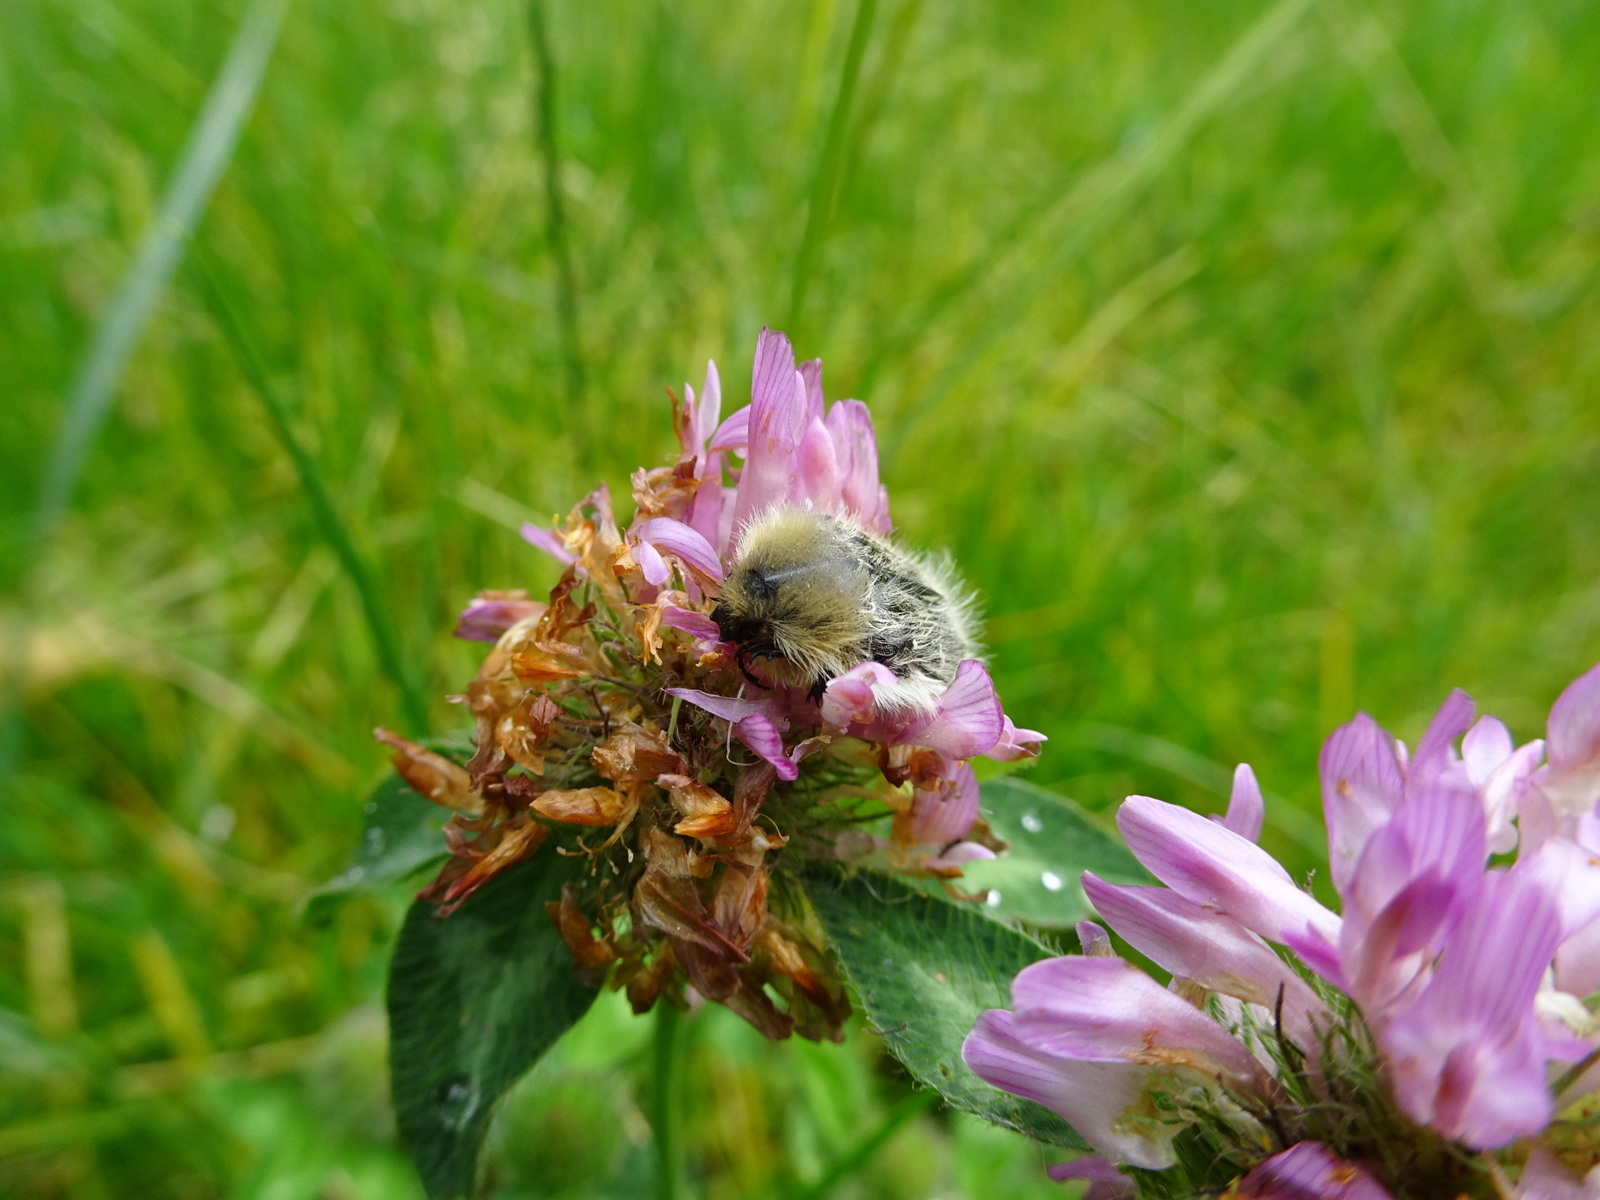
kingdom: Animalia
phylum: Arthropoda
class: Insecta
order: Coleoptera
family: Scarabaeidae
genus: Tropinota
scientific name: Tropinota hirta
